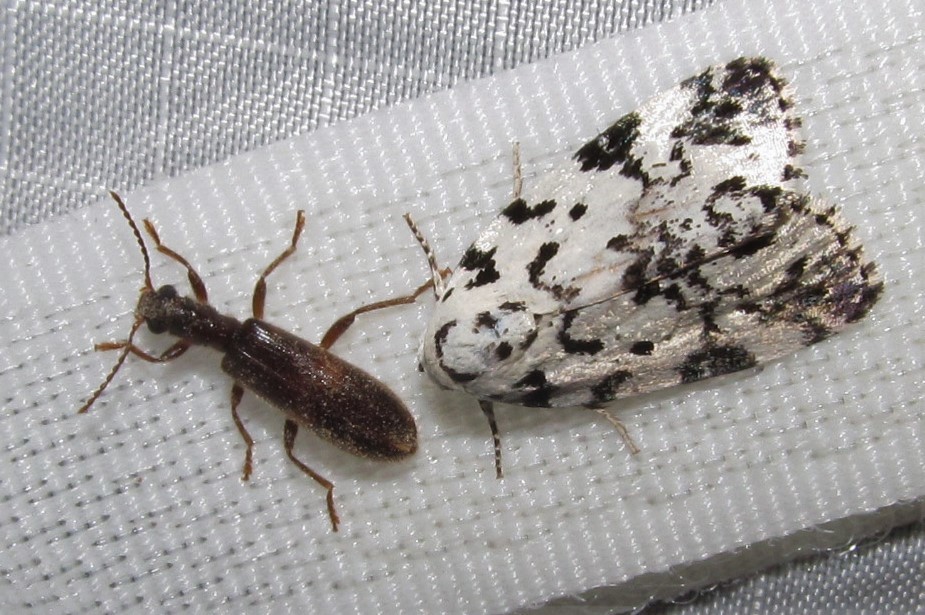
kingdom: Animalia
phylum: Arthropoda
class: Insecta
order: Lepidoptera
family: Noctuidae
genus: Polygrammate
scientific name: Polygrammate hebraeicum
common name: Hebrew moth
